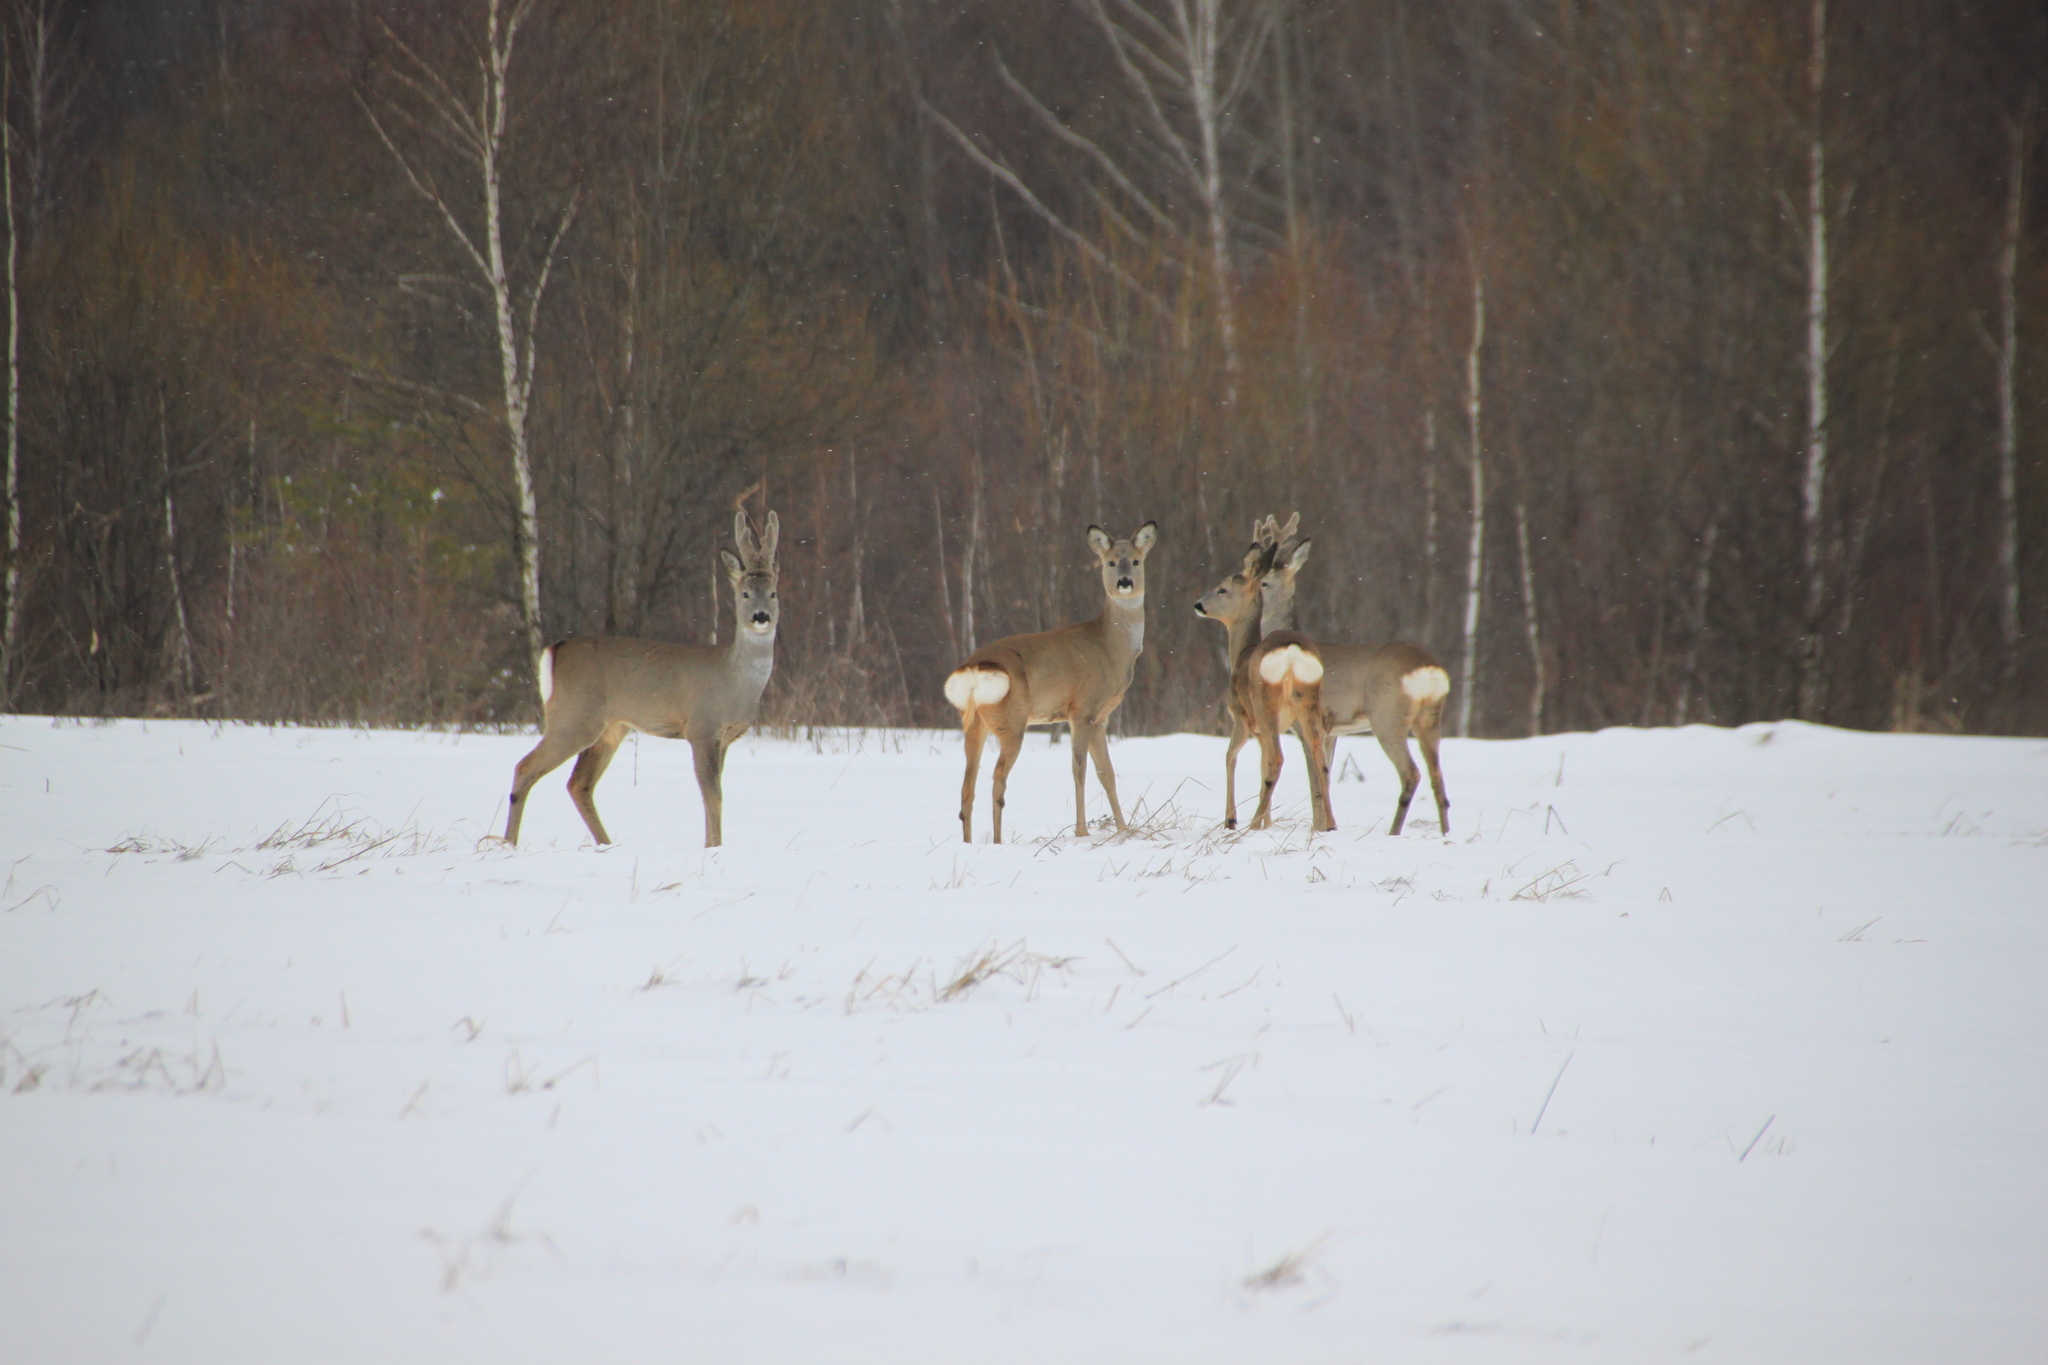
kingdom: Animalia
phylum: Chordata
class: Mammalia
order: Artiodactyla
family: Cervidae
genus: Capreolus
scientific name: Capreolus capreolus
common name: Western roe deer
